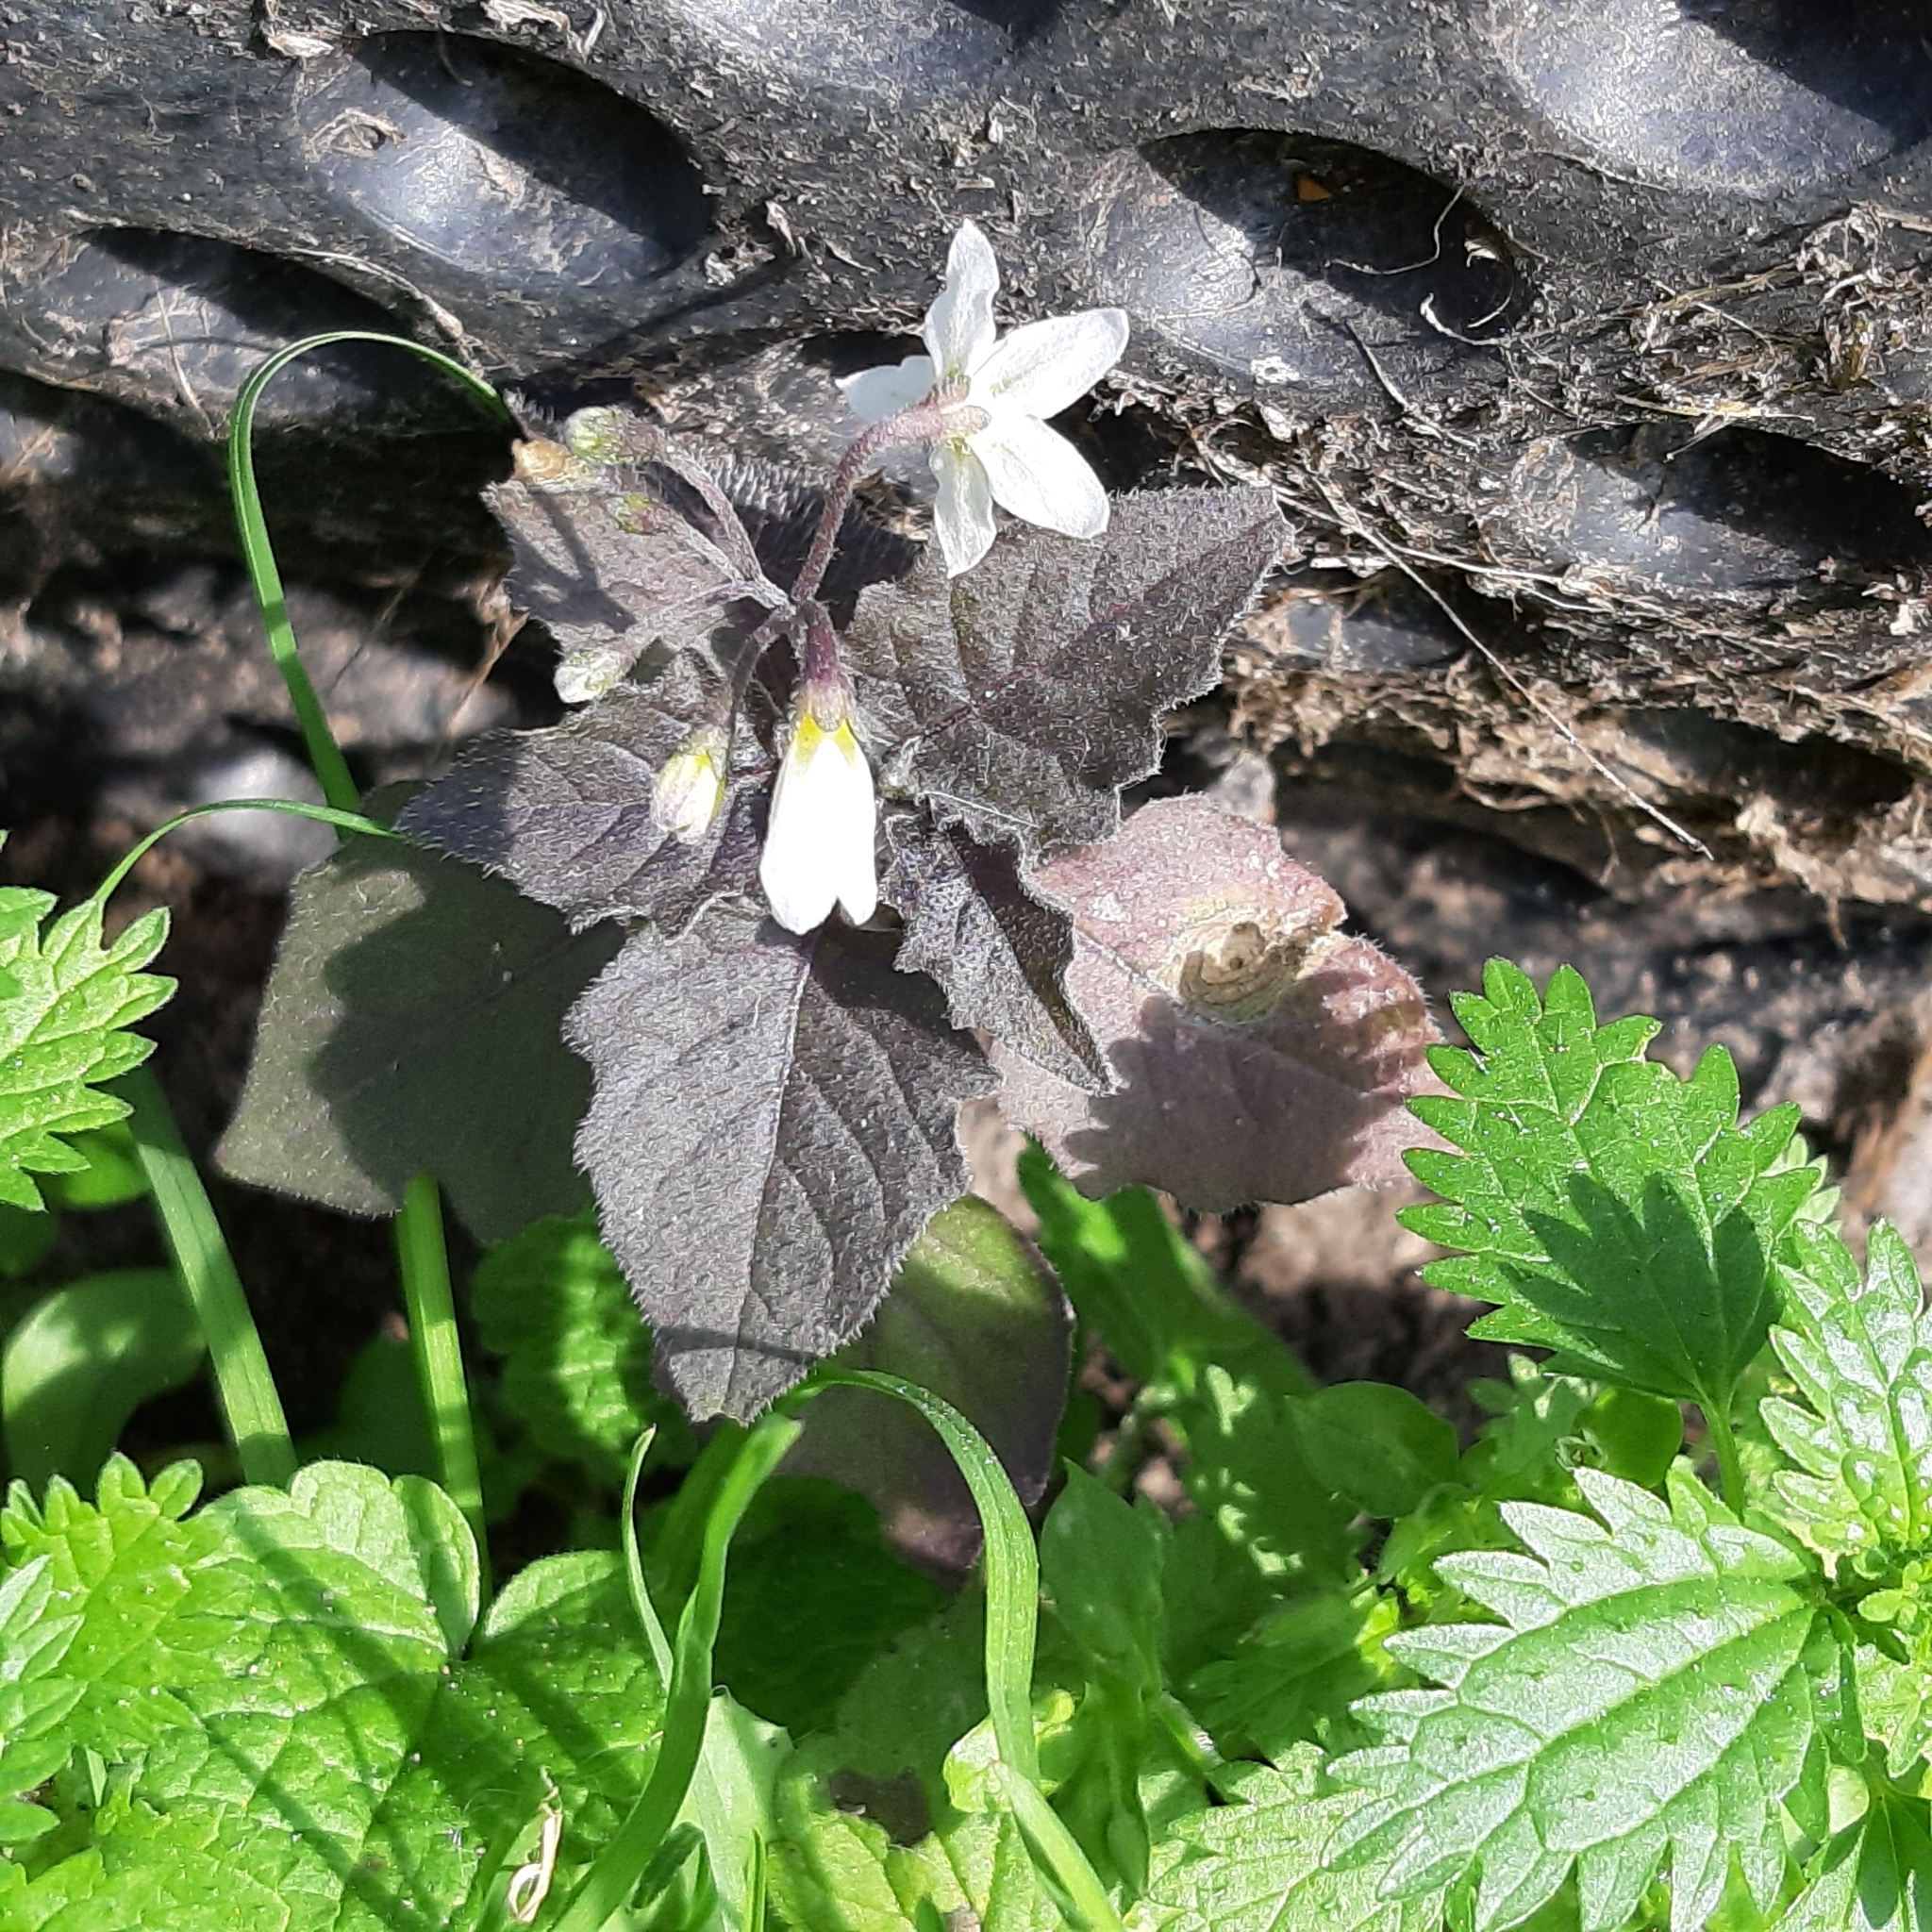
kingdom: Plantae
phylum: Tracheophyta
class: Magnoliopsida
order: Solanales
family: Solanaceae
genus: Solanum
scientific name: Solanum nigrum
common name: Black nightshade
